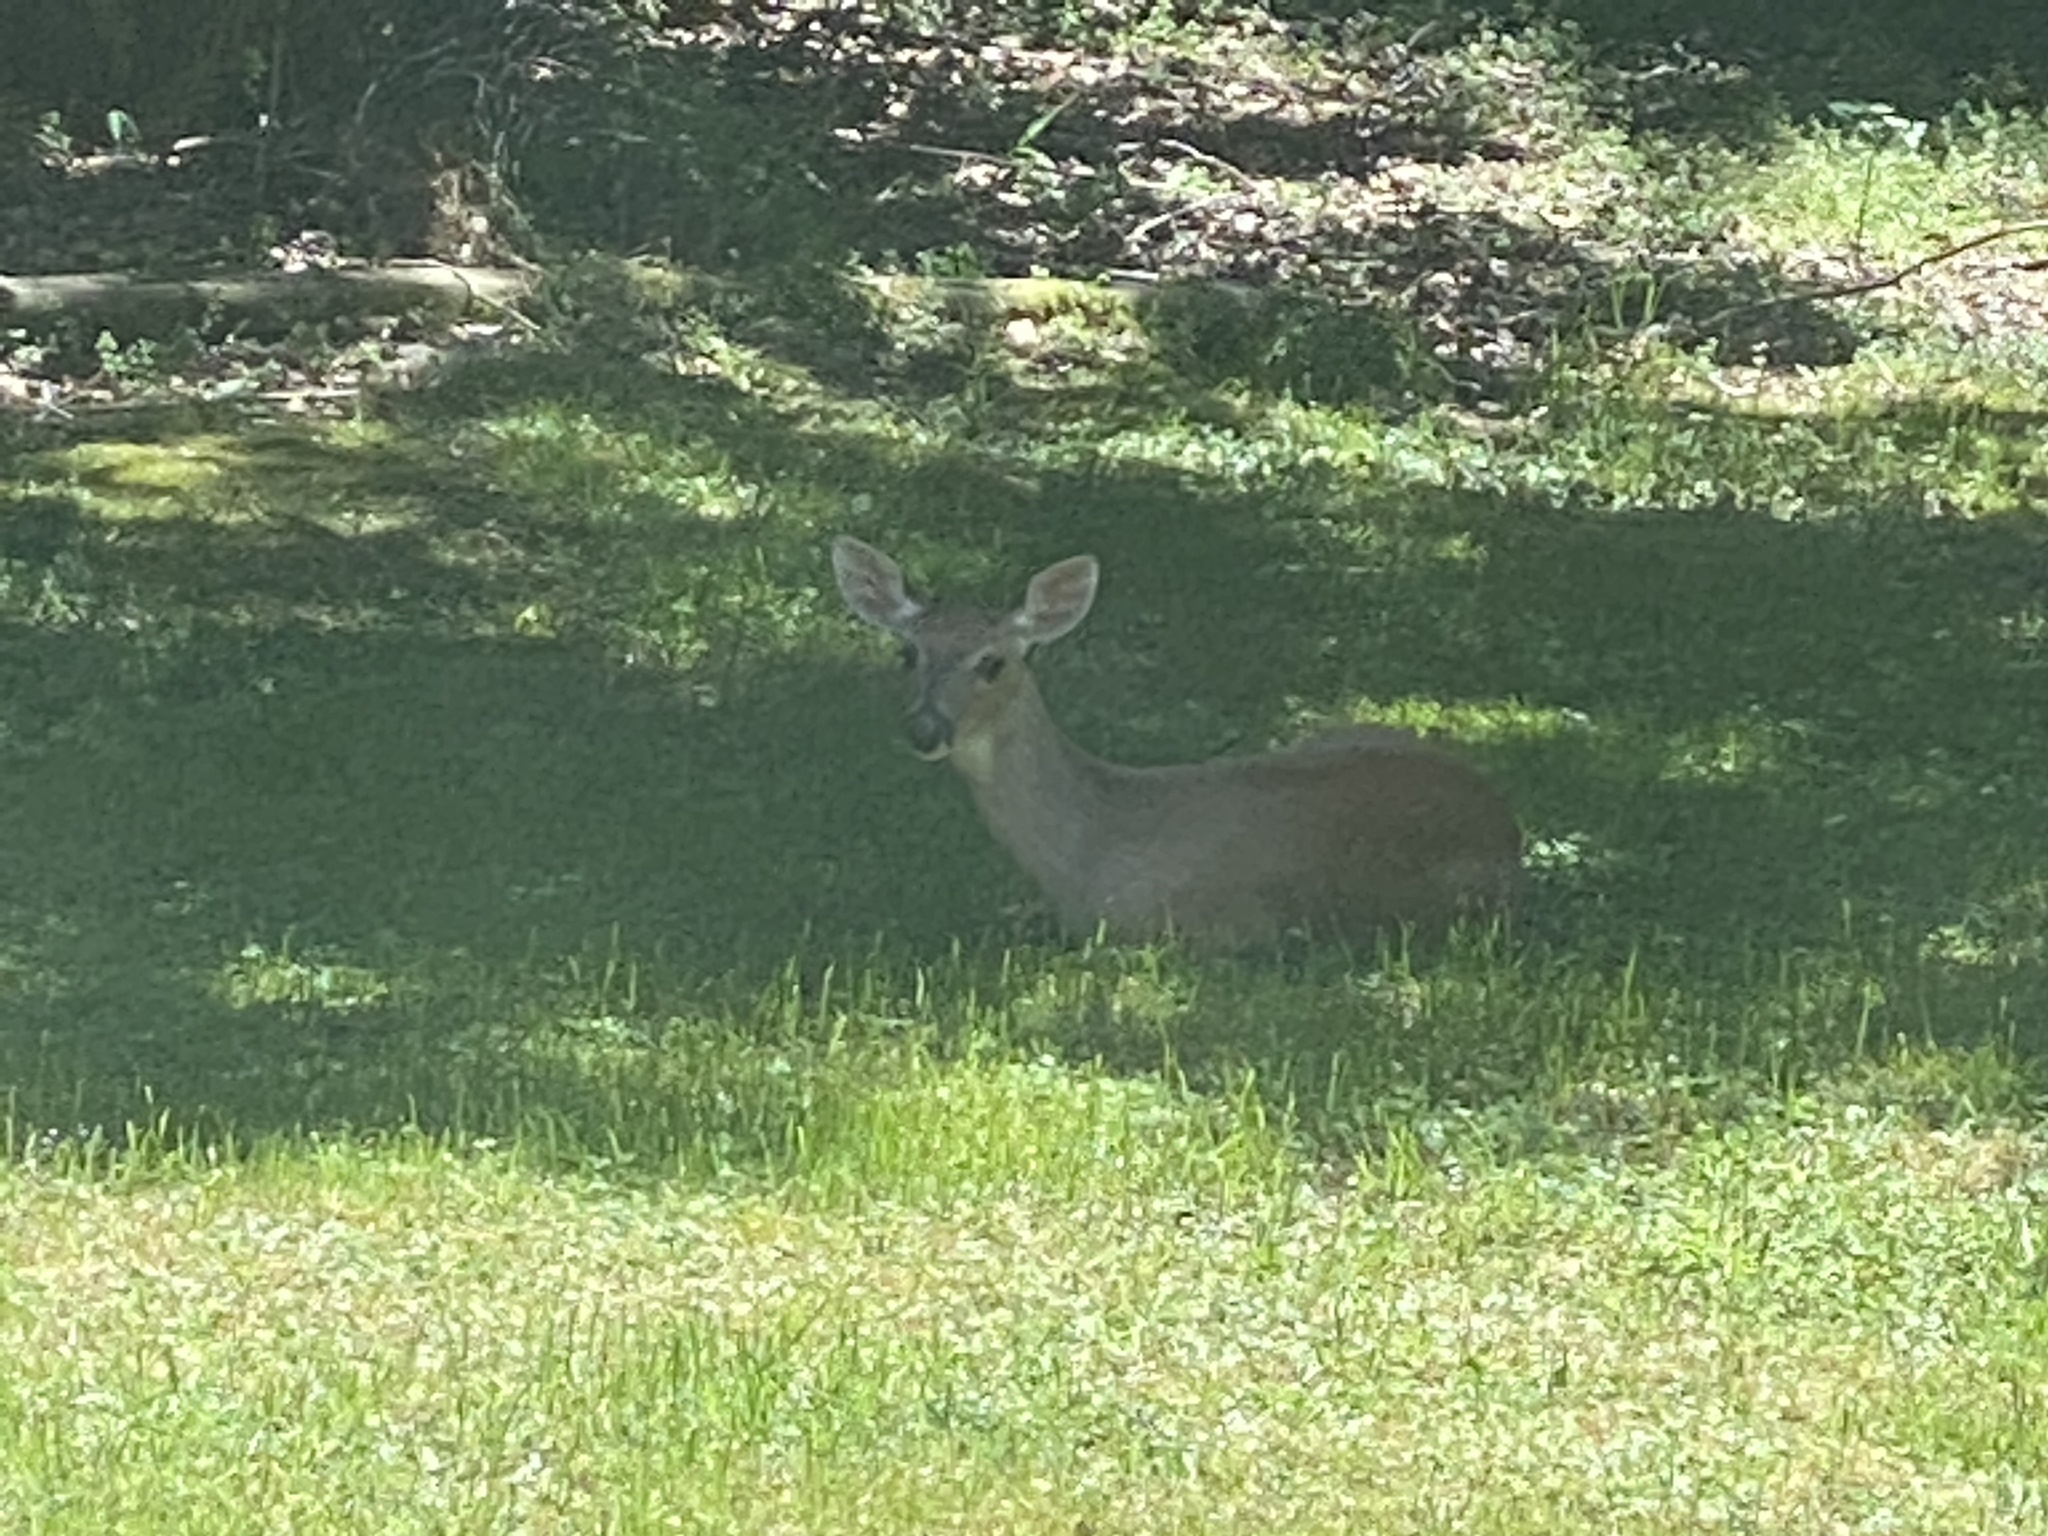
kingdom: Animalia
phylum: Chordata
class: Mammalia
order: Artiodactyla
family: Cervidae
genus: Odocoileus
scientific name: Odocoileus virginianus
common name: White-tailed deer
